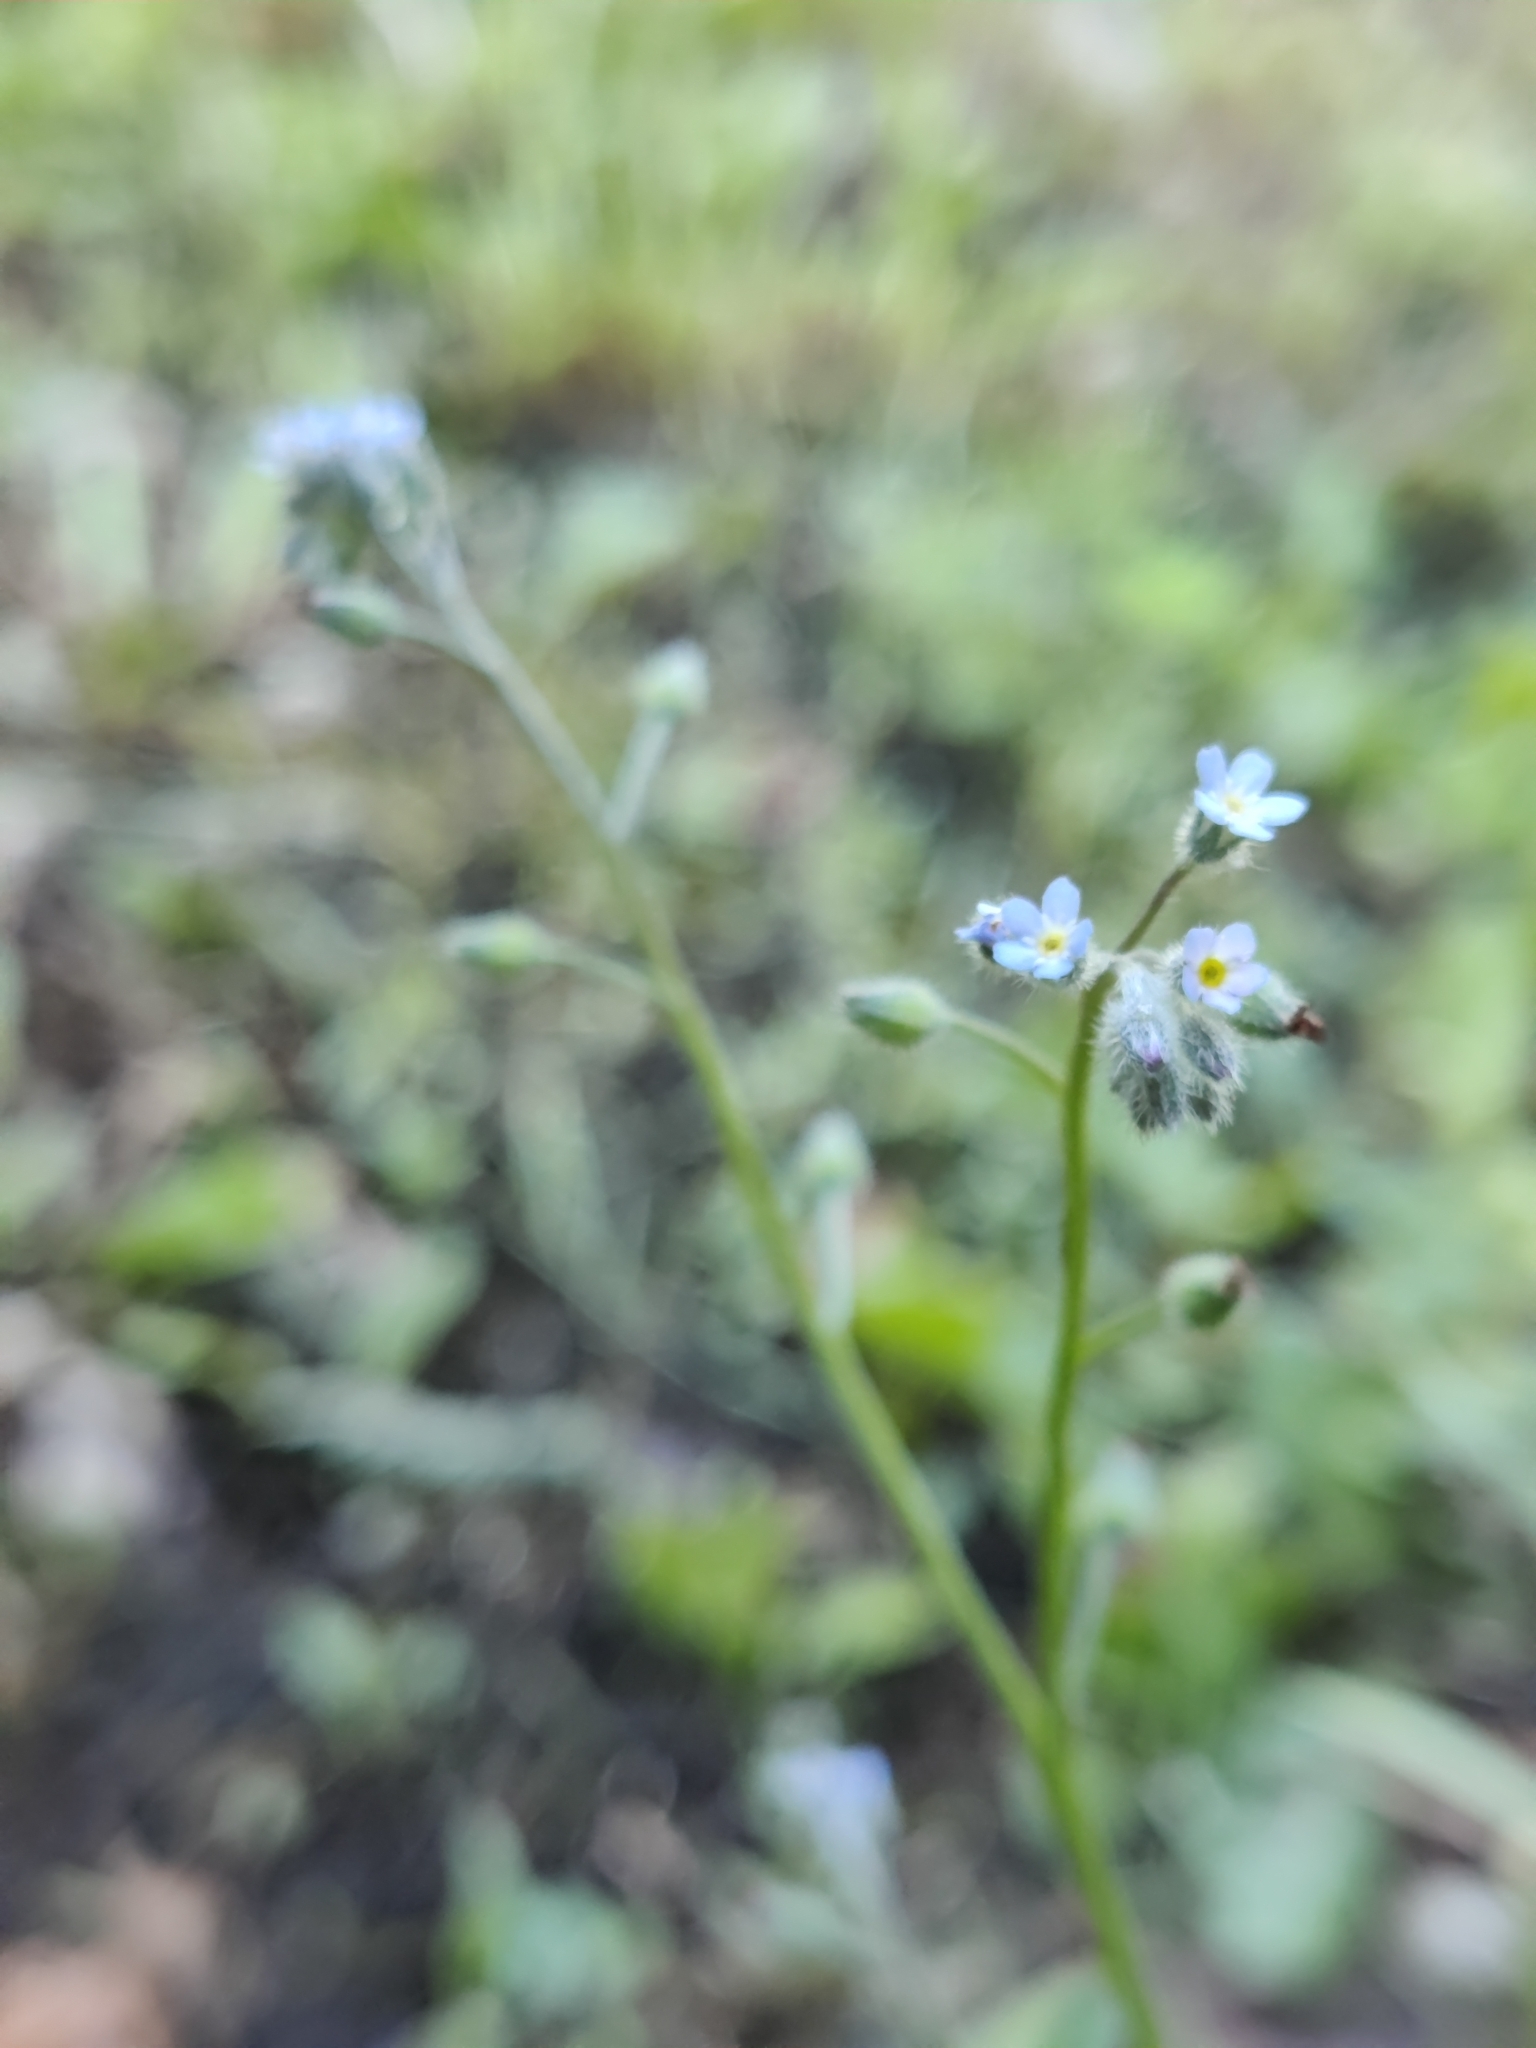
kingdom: Plantae
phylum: Tracheophyta
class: Magnoliopsida
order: Boraginales
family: Boraginaceae
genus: Myosotis
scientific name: Myosotis arvensis
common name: Field forget-me-not
